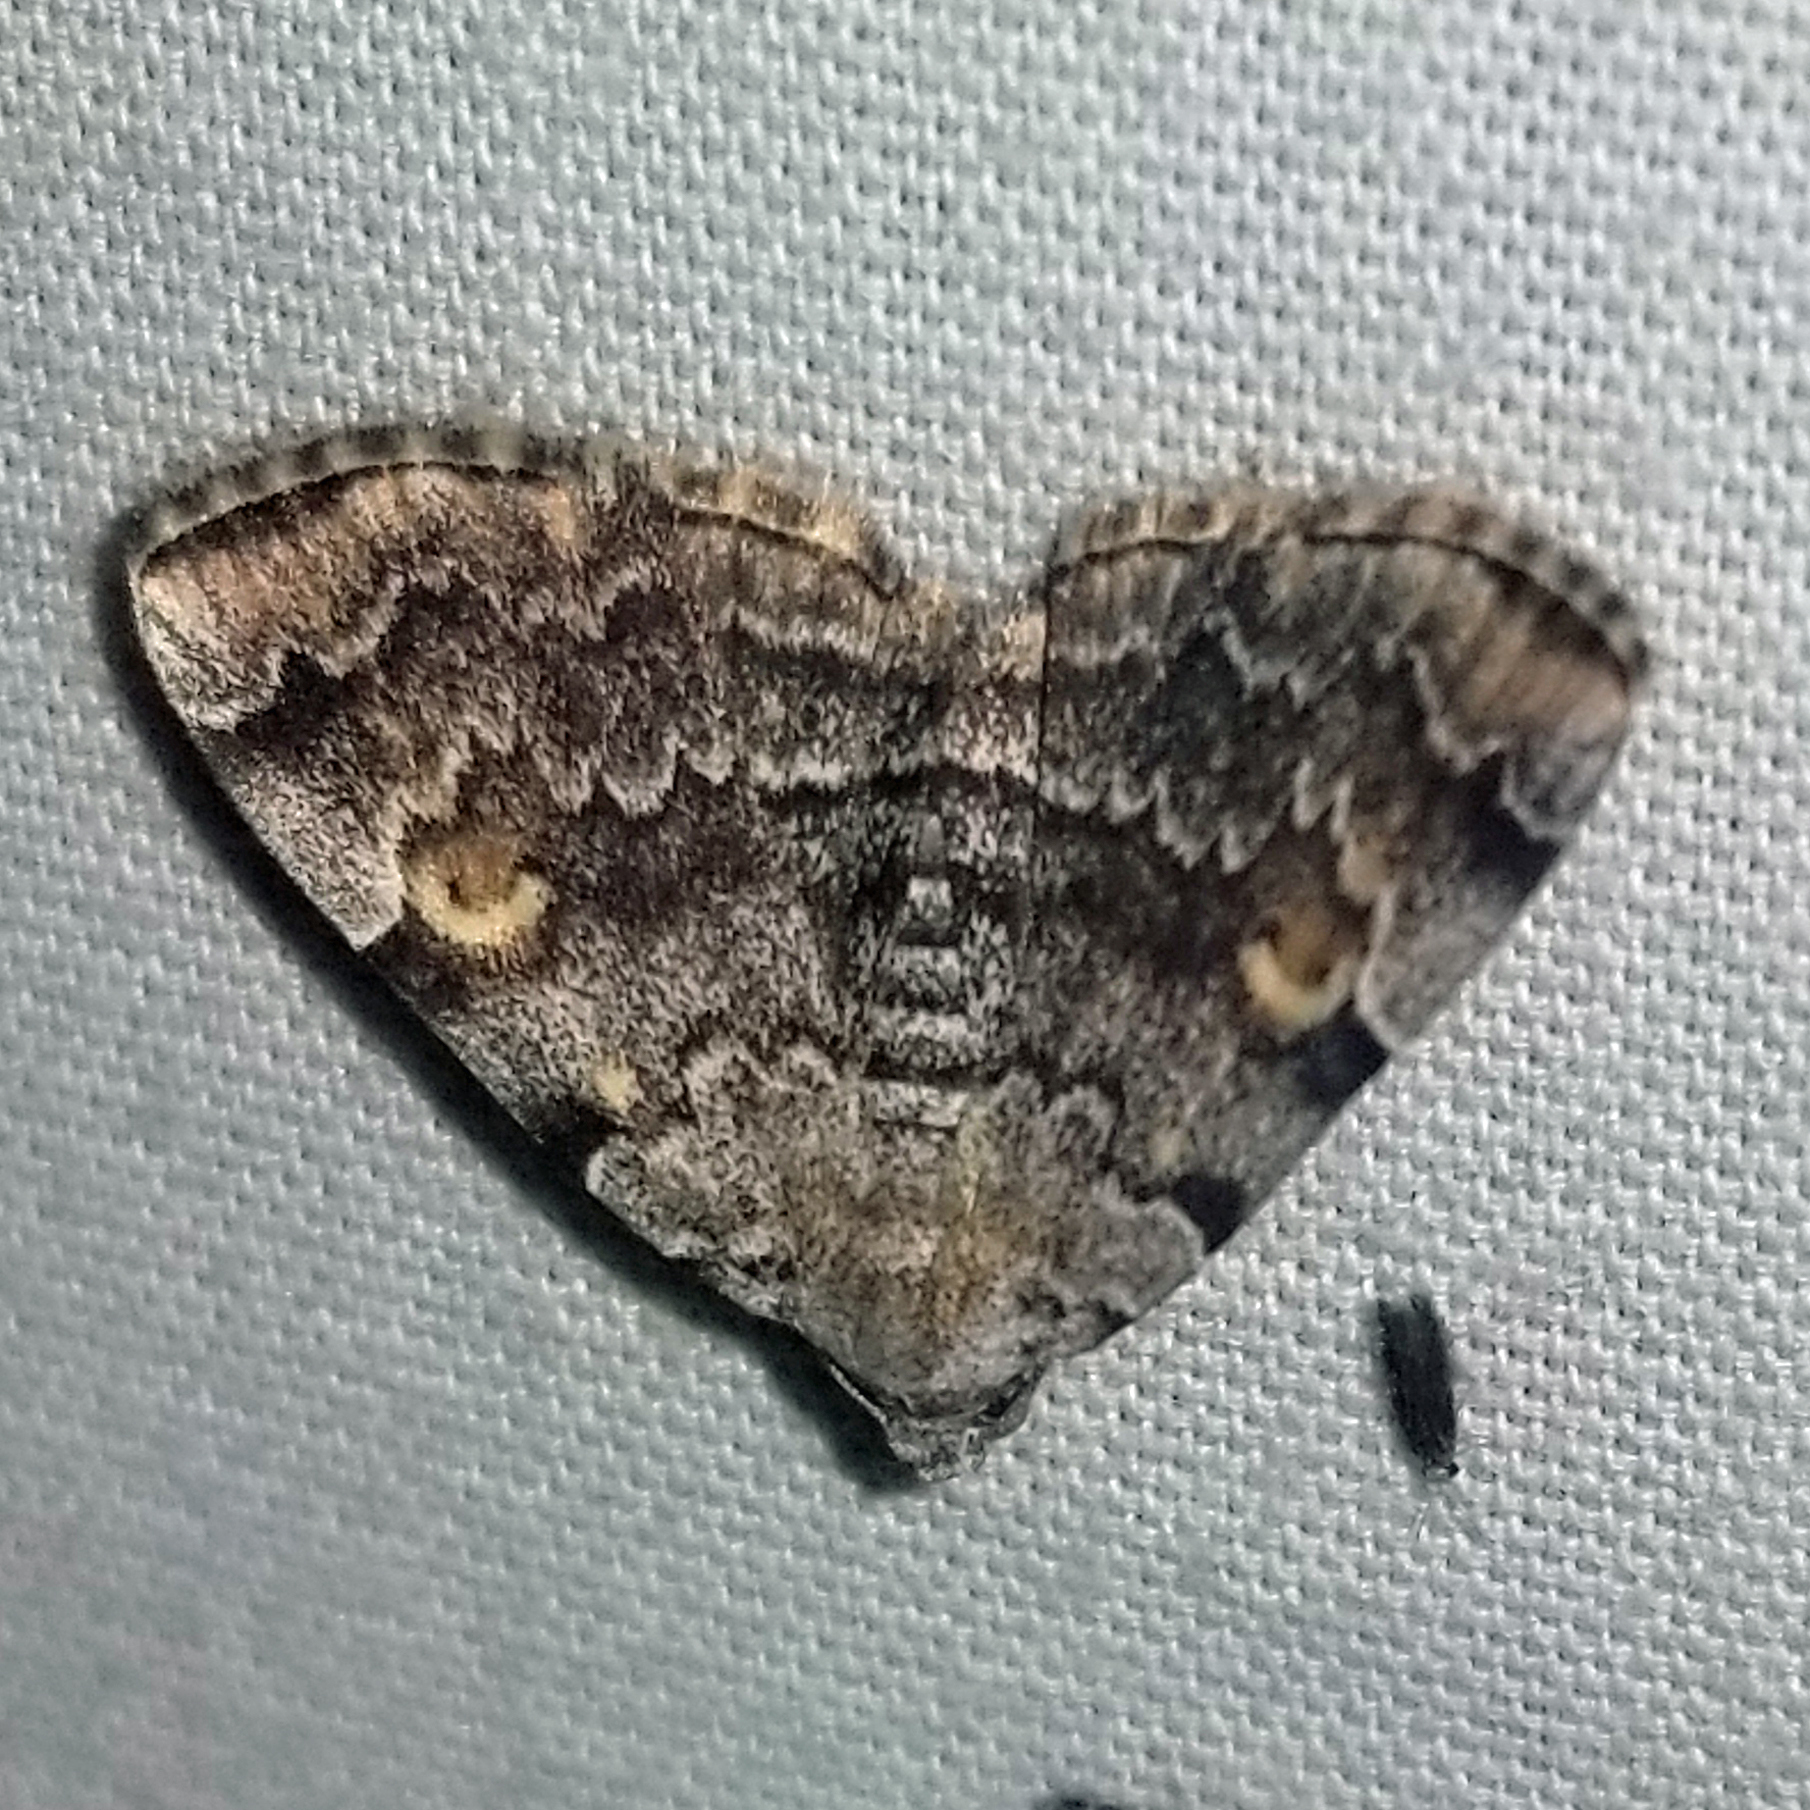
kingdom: Animalia
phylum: Arthropoda
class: Insecta
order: Lepidoptera
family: Erebidae
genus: Idia
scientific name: Idia americalis
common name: American idia moth
